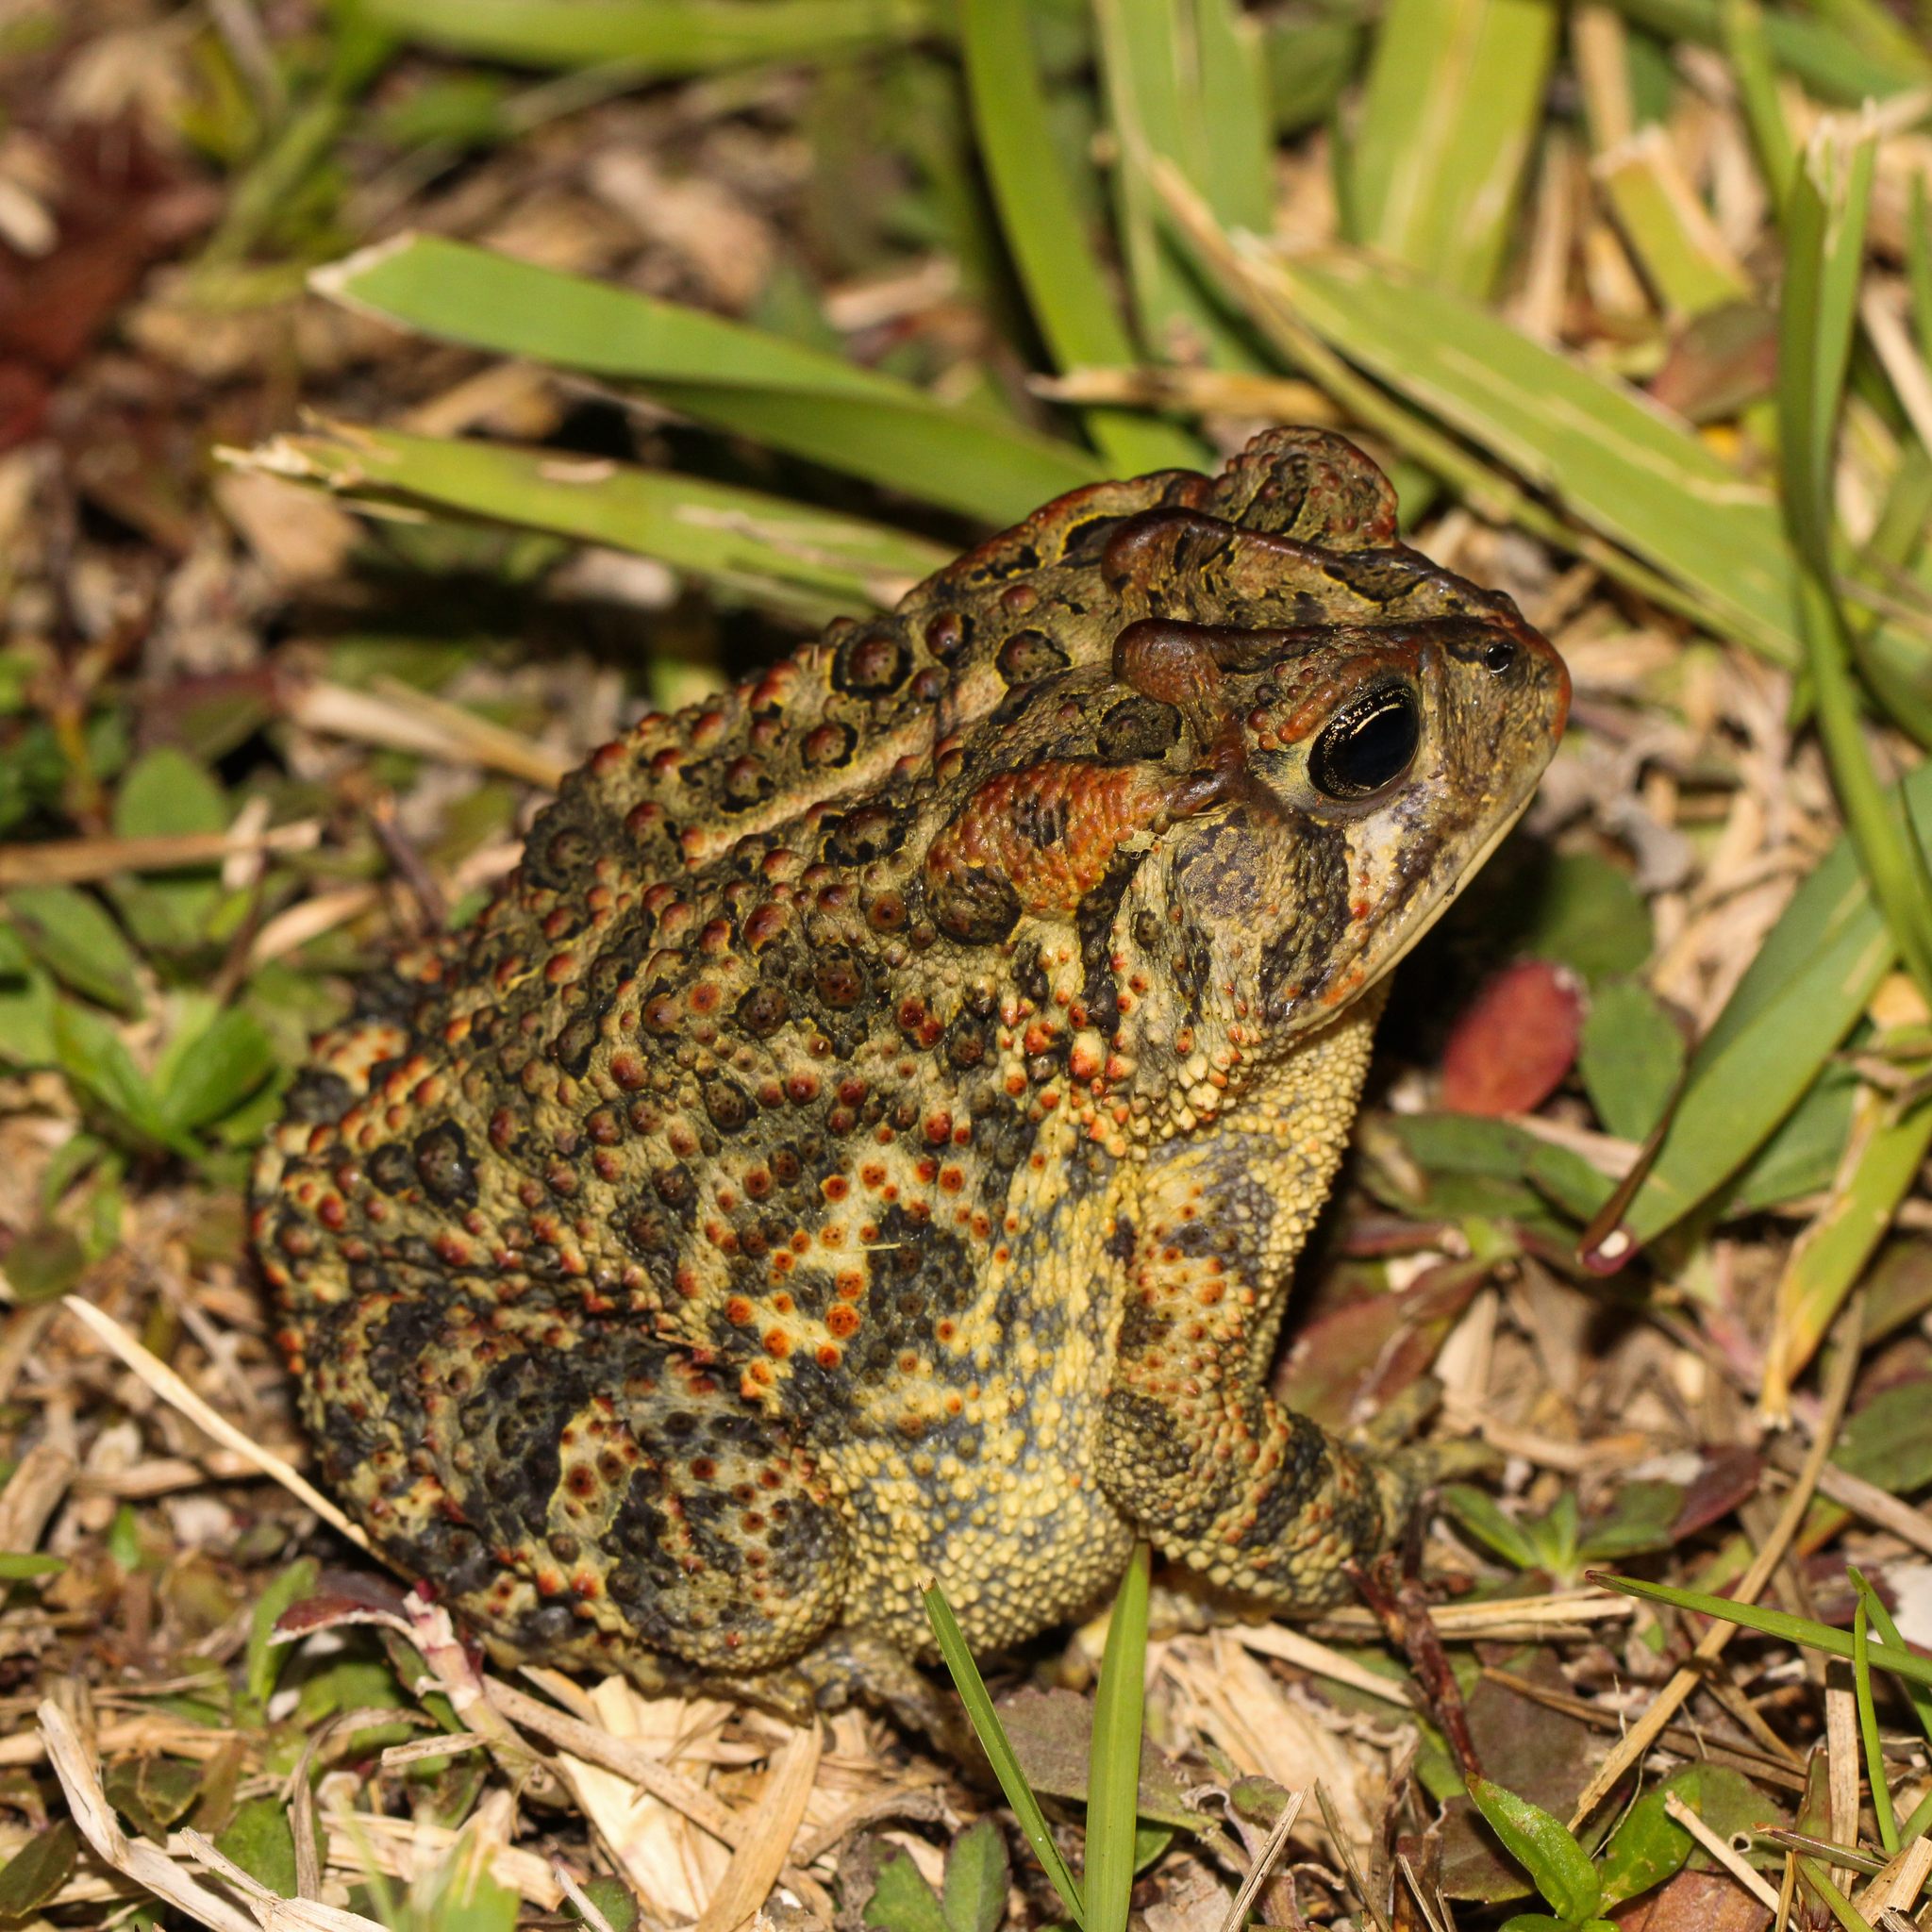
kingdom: Animalia
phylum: Chordata
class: Amphibia
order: Anura
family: Bufonidae
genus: Anaxyrus
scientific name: Anaxyrus terrestris
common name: Southern toad
